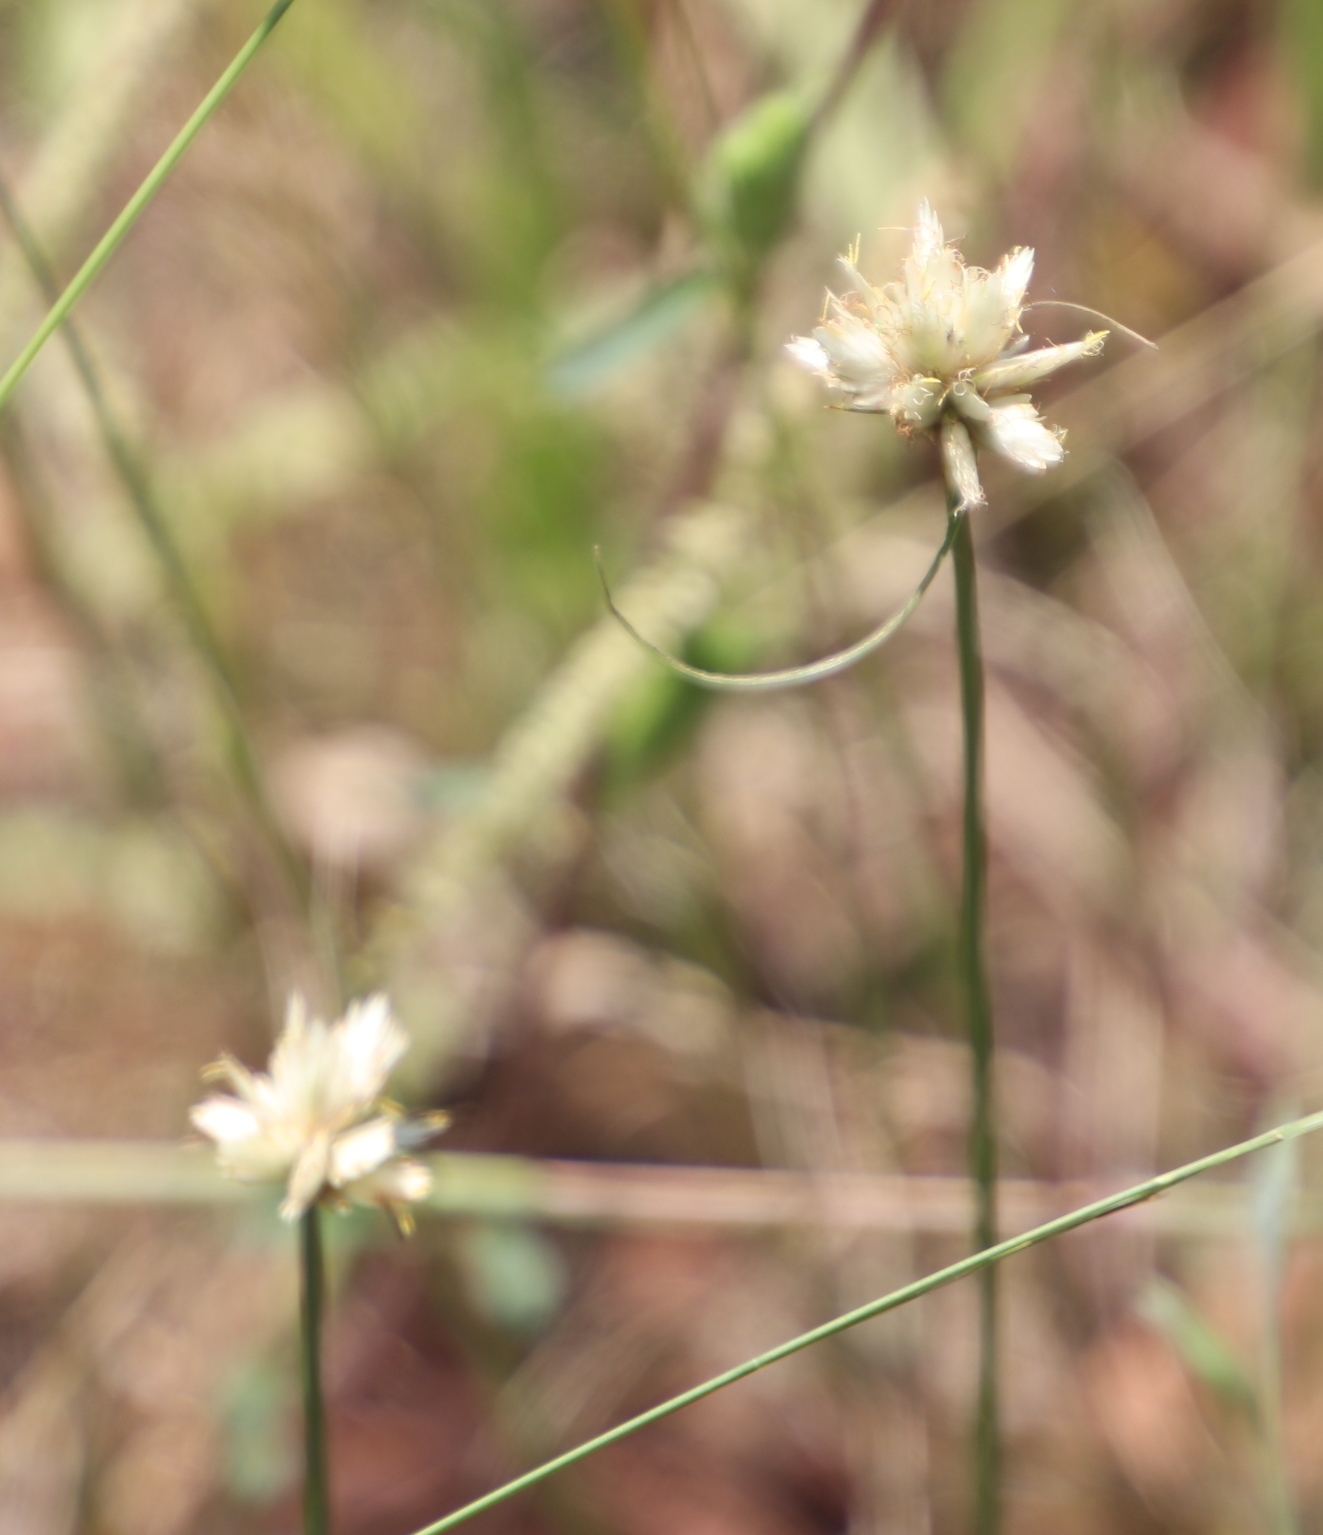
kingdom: Plantae
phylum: Tracheophyta
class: Liliopsida
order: Poales
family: Cyperaceae
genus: Cyperus
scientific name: Cyperus niveus
